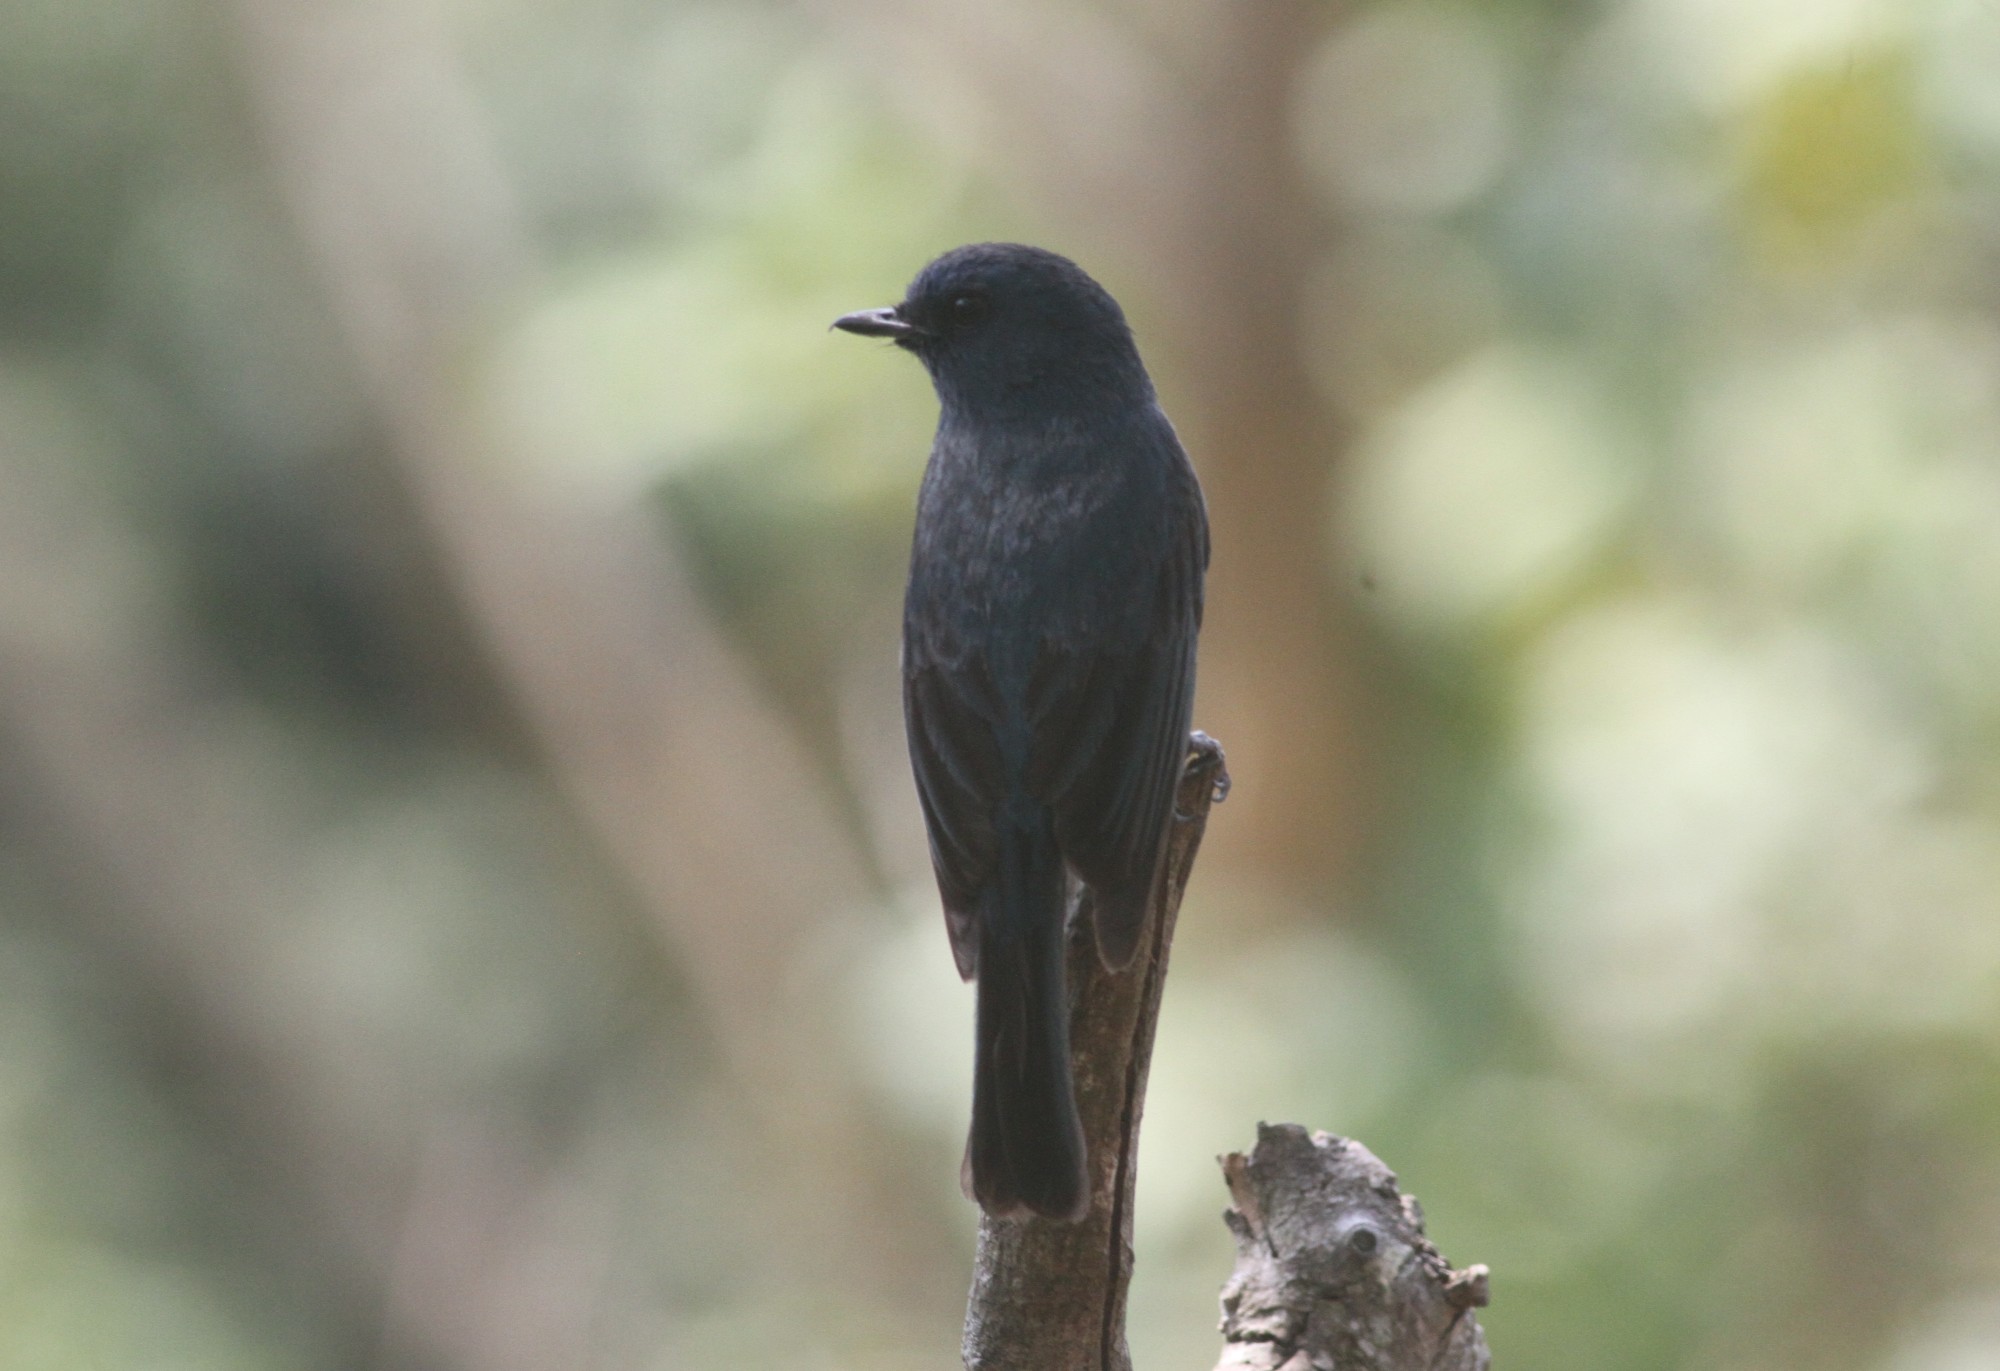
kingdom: Animalia
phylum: Chordata
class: Aves
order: Passeriformes
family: Muscicapidae
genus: Eumyias
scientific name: Eumyias albicaudatus
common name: Nilgiri flycatcher
